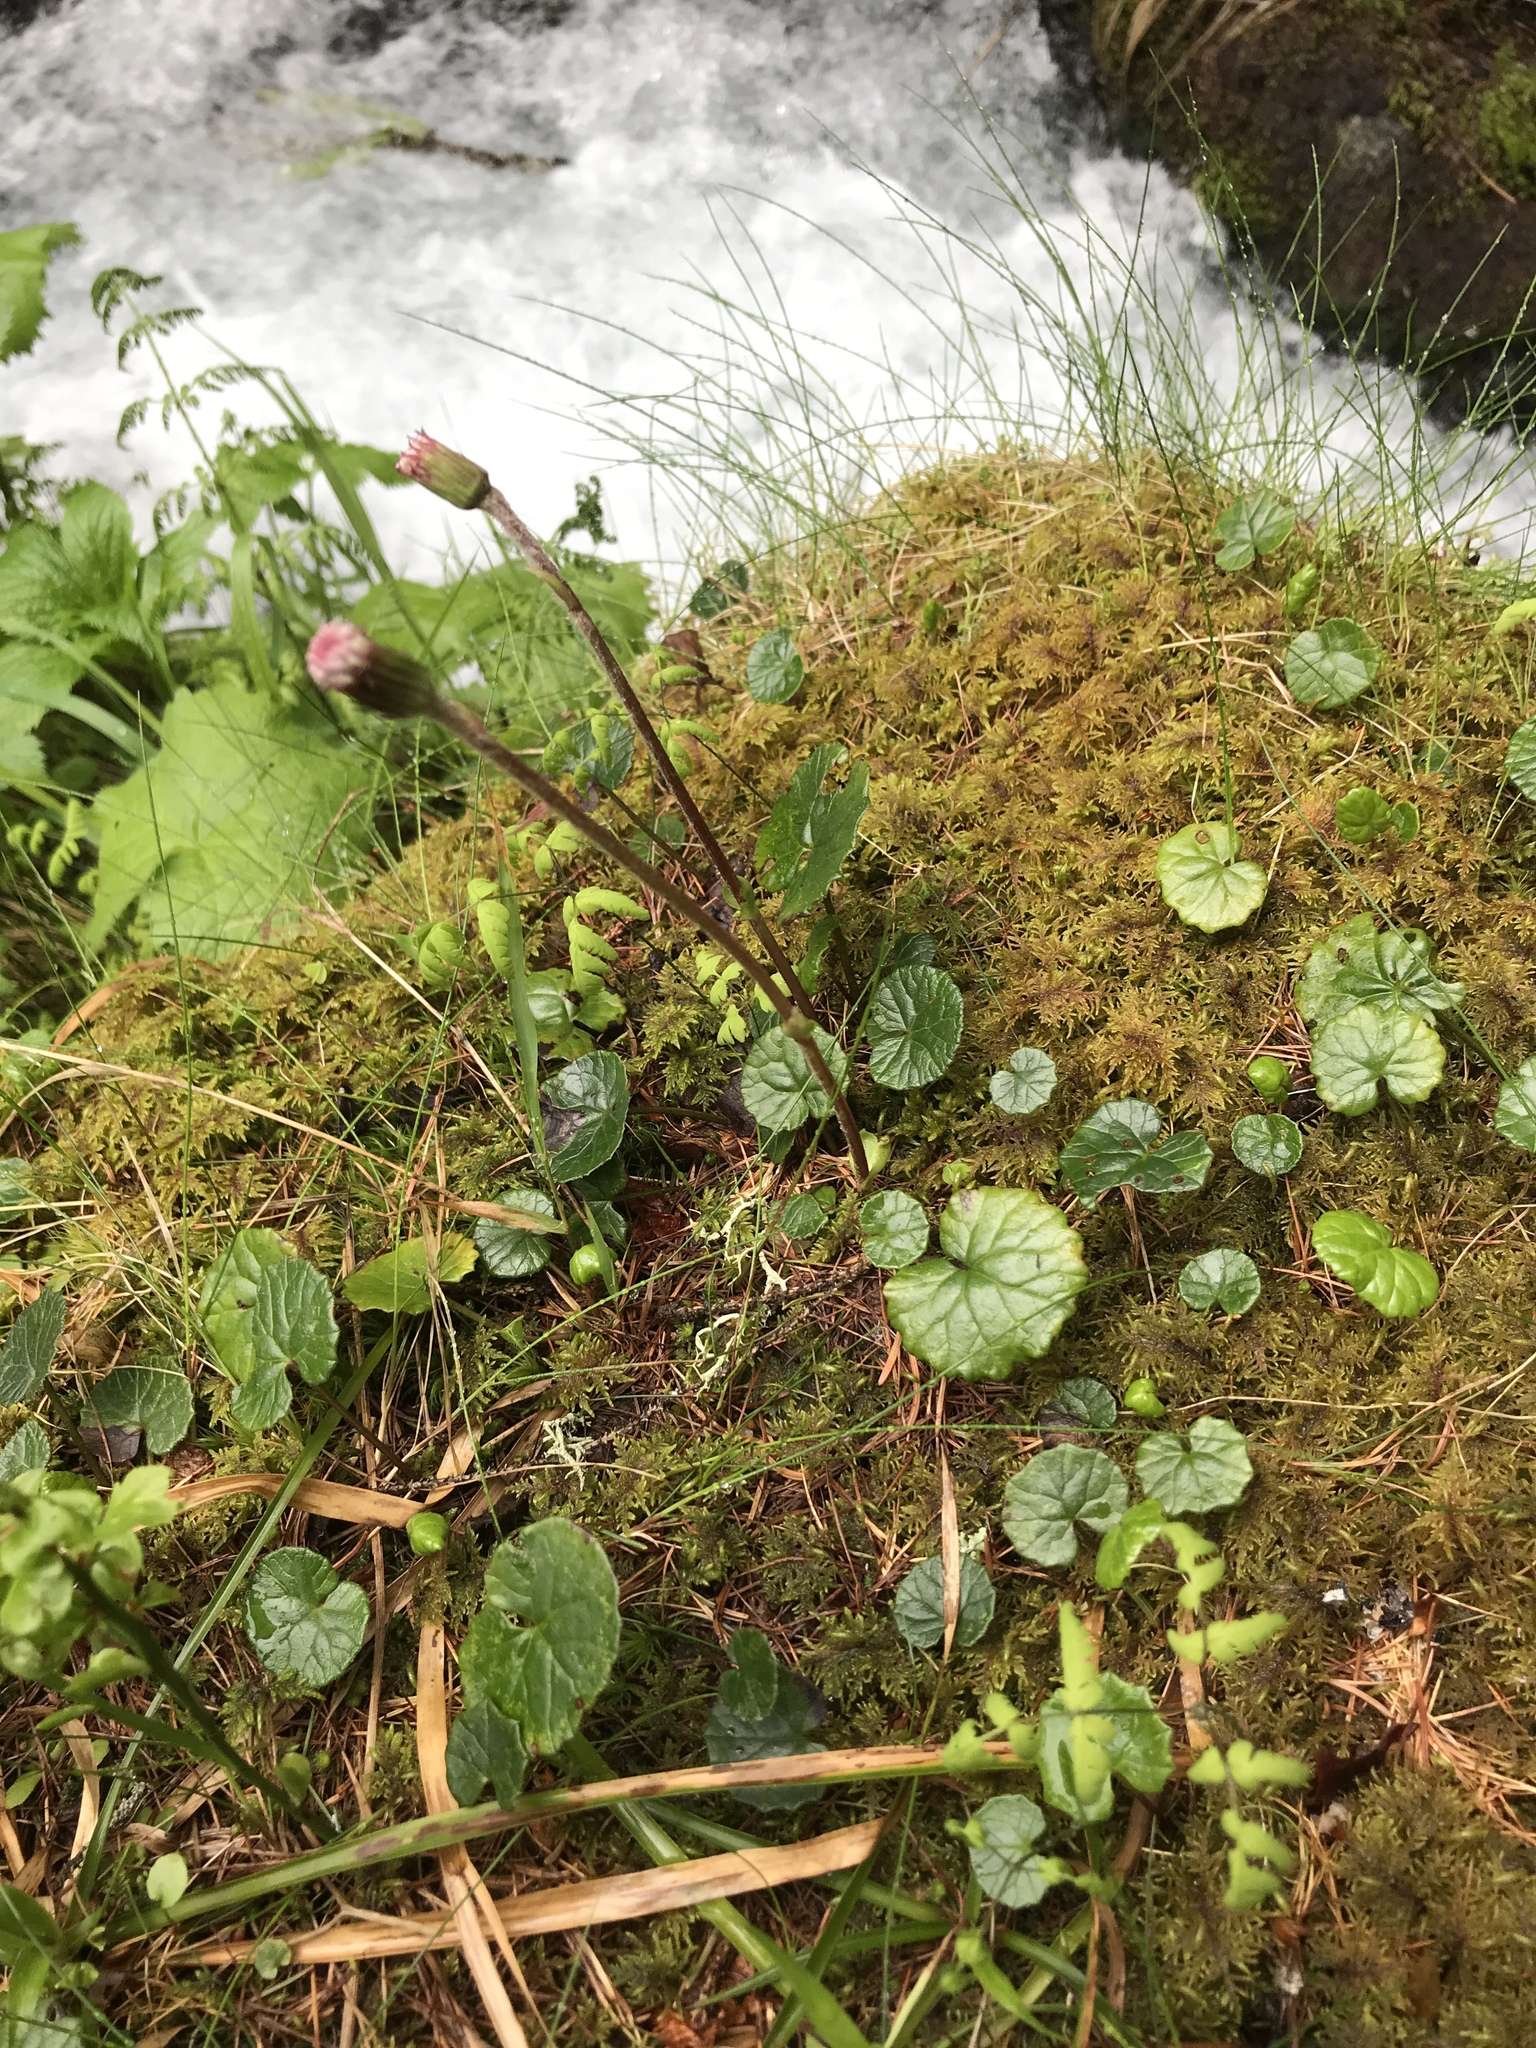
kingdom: Plantae
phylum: Tracheophyta
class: Magnoliopsida
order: Asterales
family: Asteraceae
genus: Homogyne
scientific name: Homogyne alpina
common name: Purple colt's-foot
